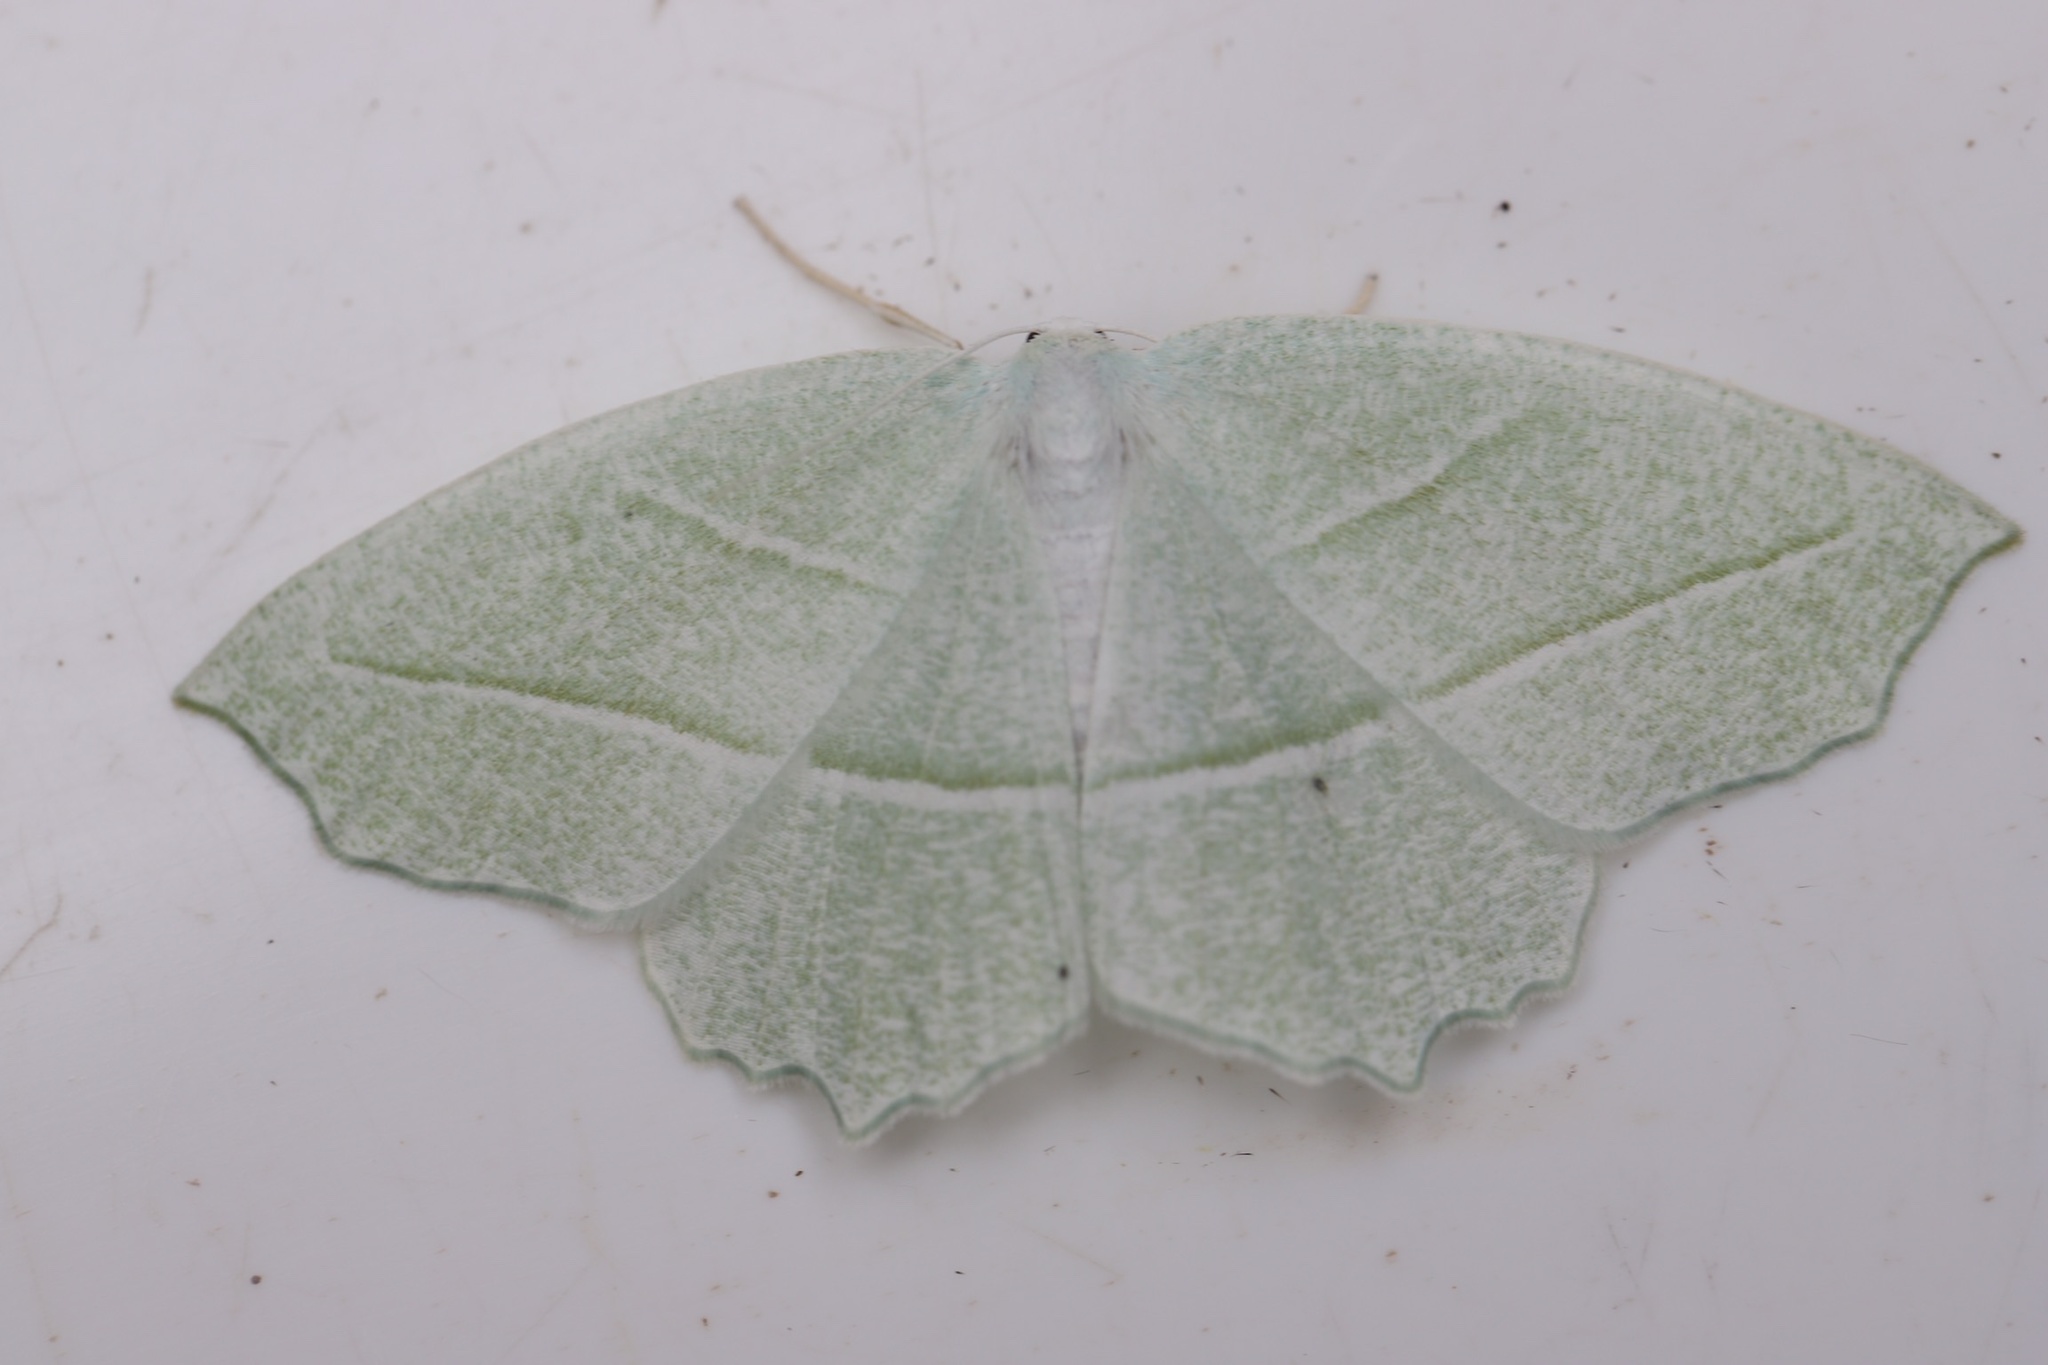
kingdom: Animalia
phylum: Arthropoda
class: Insecta
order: Lepidoptera
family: Geometridae
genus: Campaea
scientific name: Campaea perlata
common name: Fringed looper
